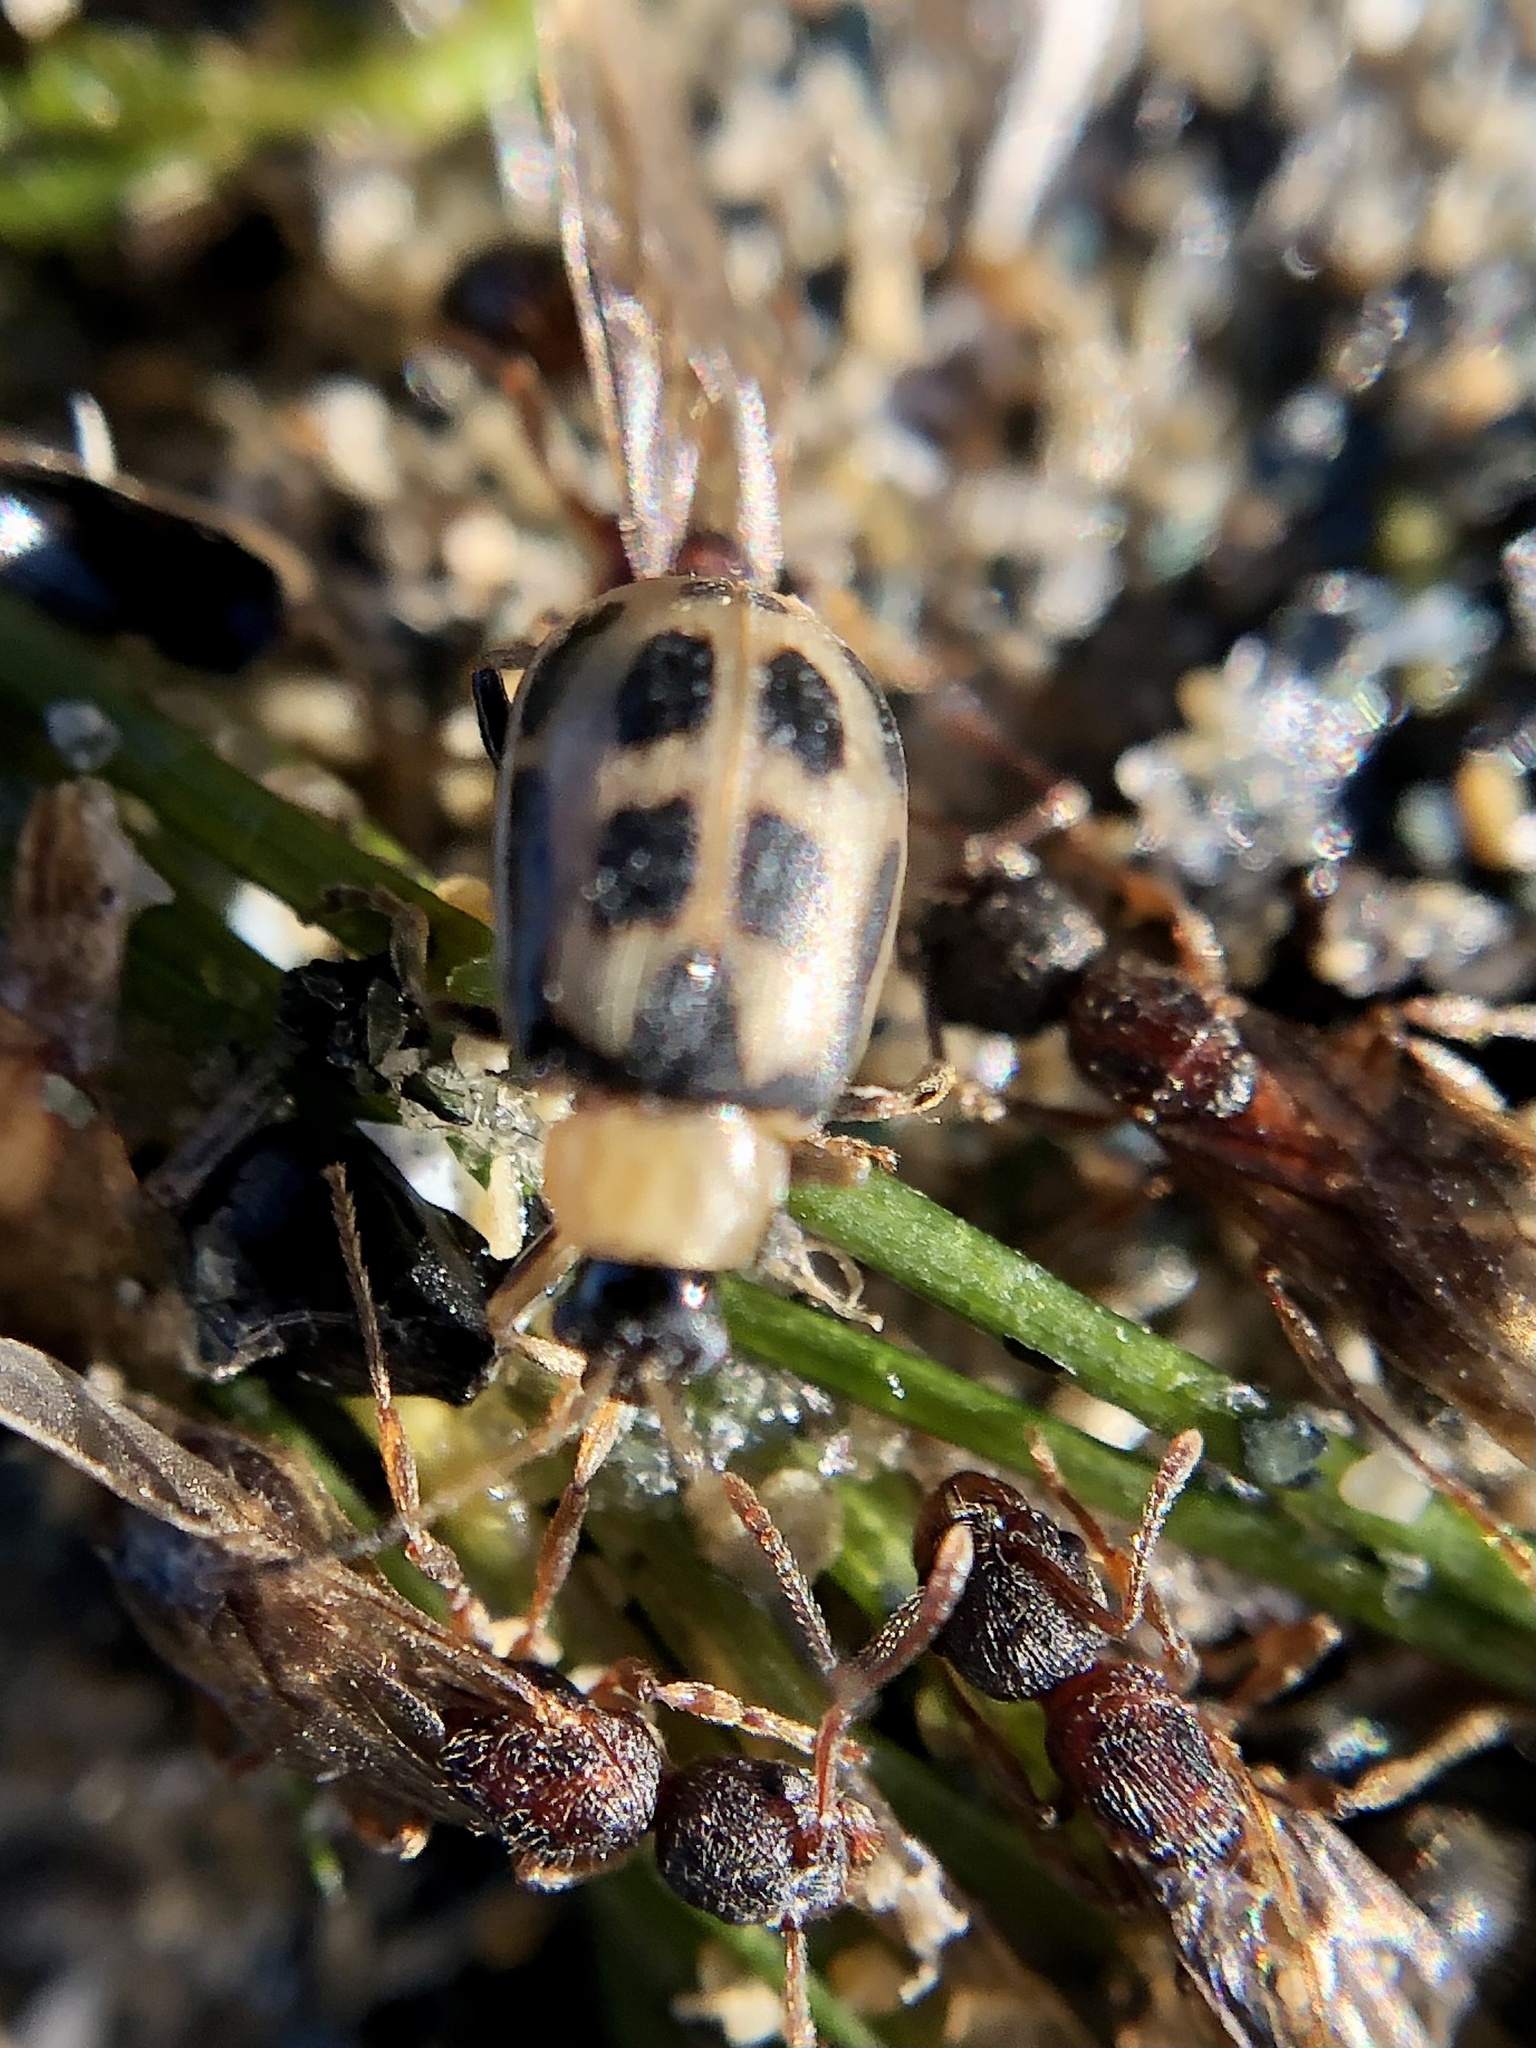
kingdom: Animalia
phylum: Arthropoda
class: Insecta
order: Coleoptera
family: Chrysomelidae
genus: Cerotoma
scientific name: Cerotoma trifurcata
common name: Bean leaf beetle
